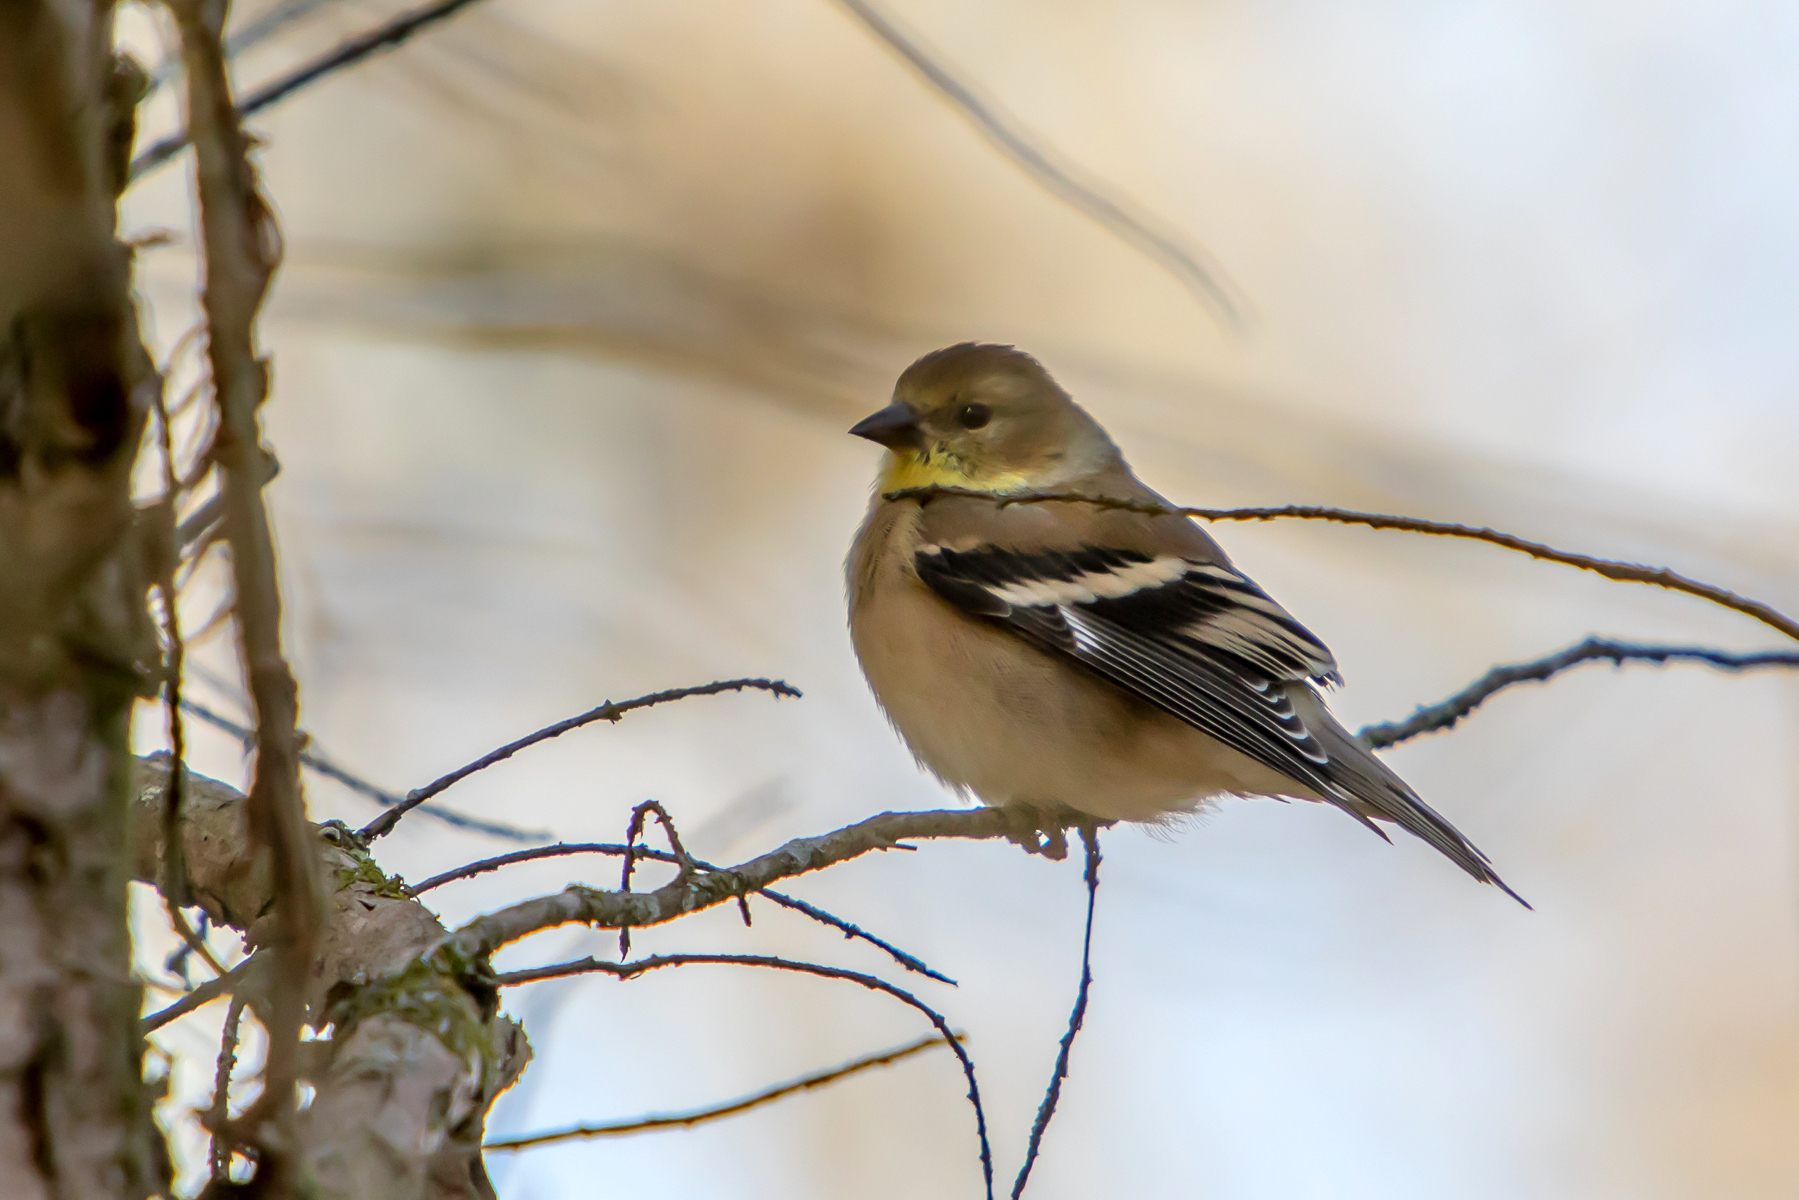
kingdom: Animalia
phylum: Chordata
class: Aves
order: Passeriformes
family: Fringillidae
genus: Spinus
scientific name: Spinus tristis
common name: American goldfinch
